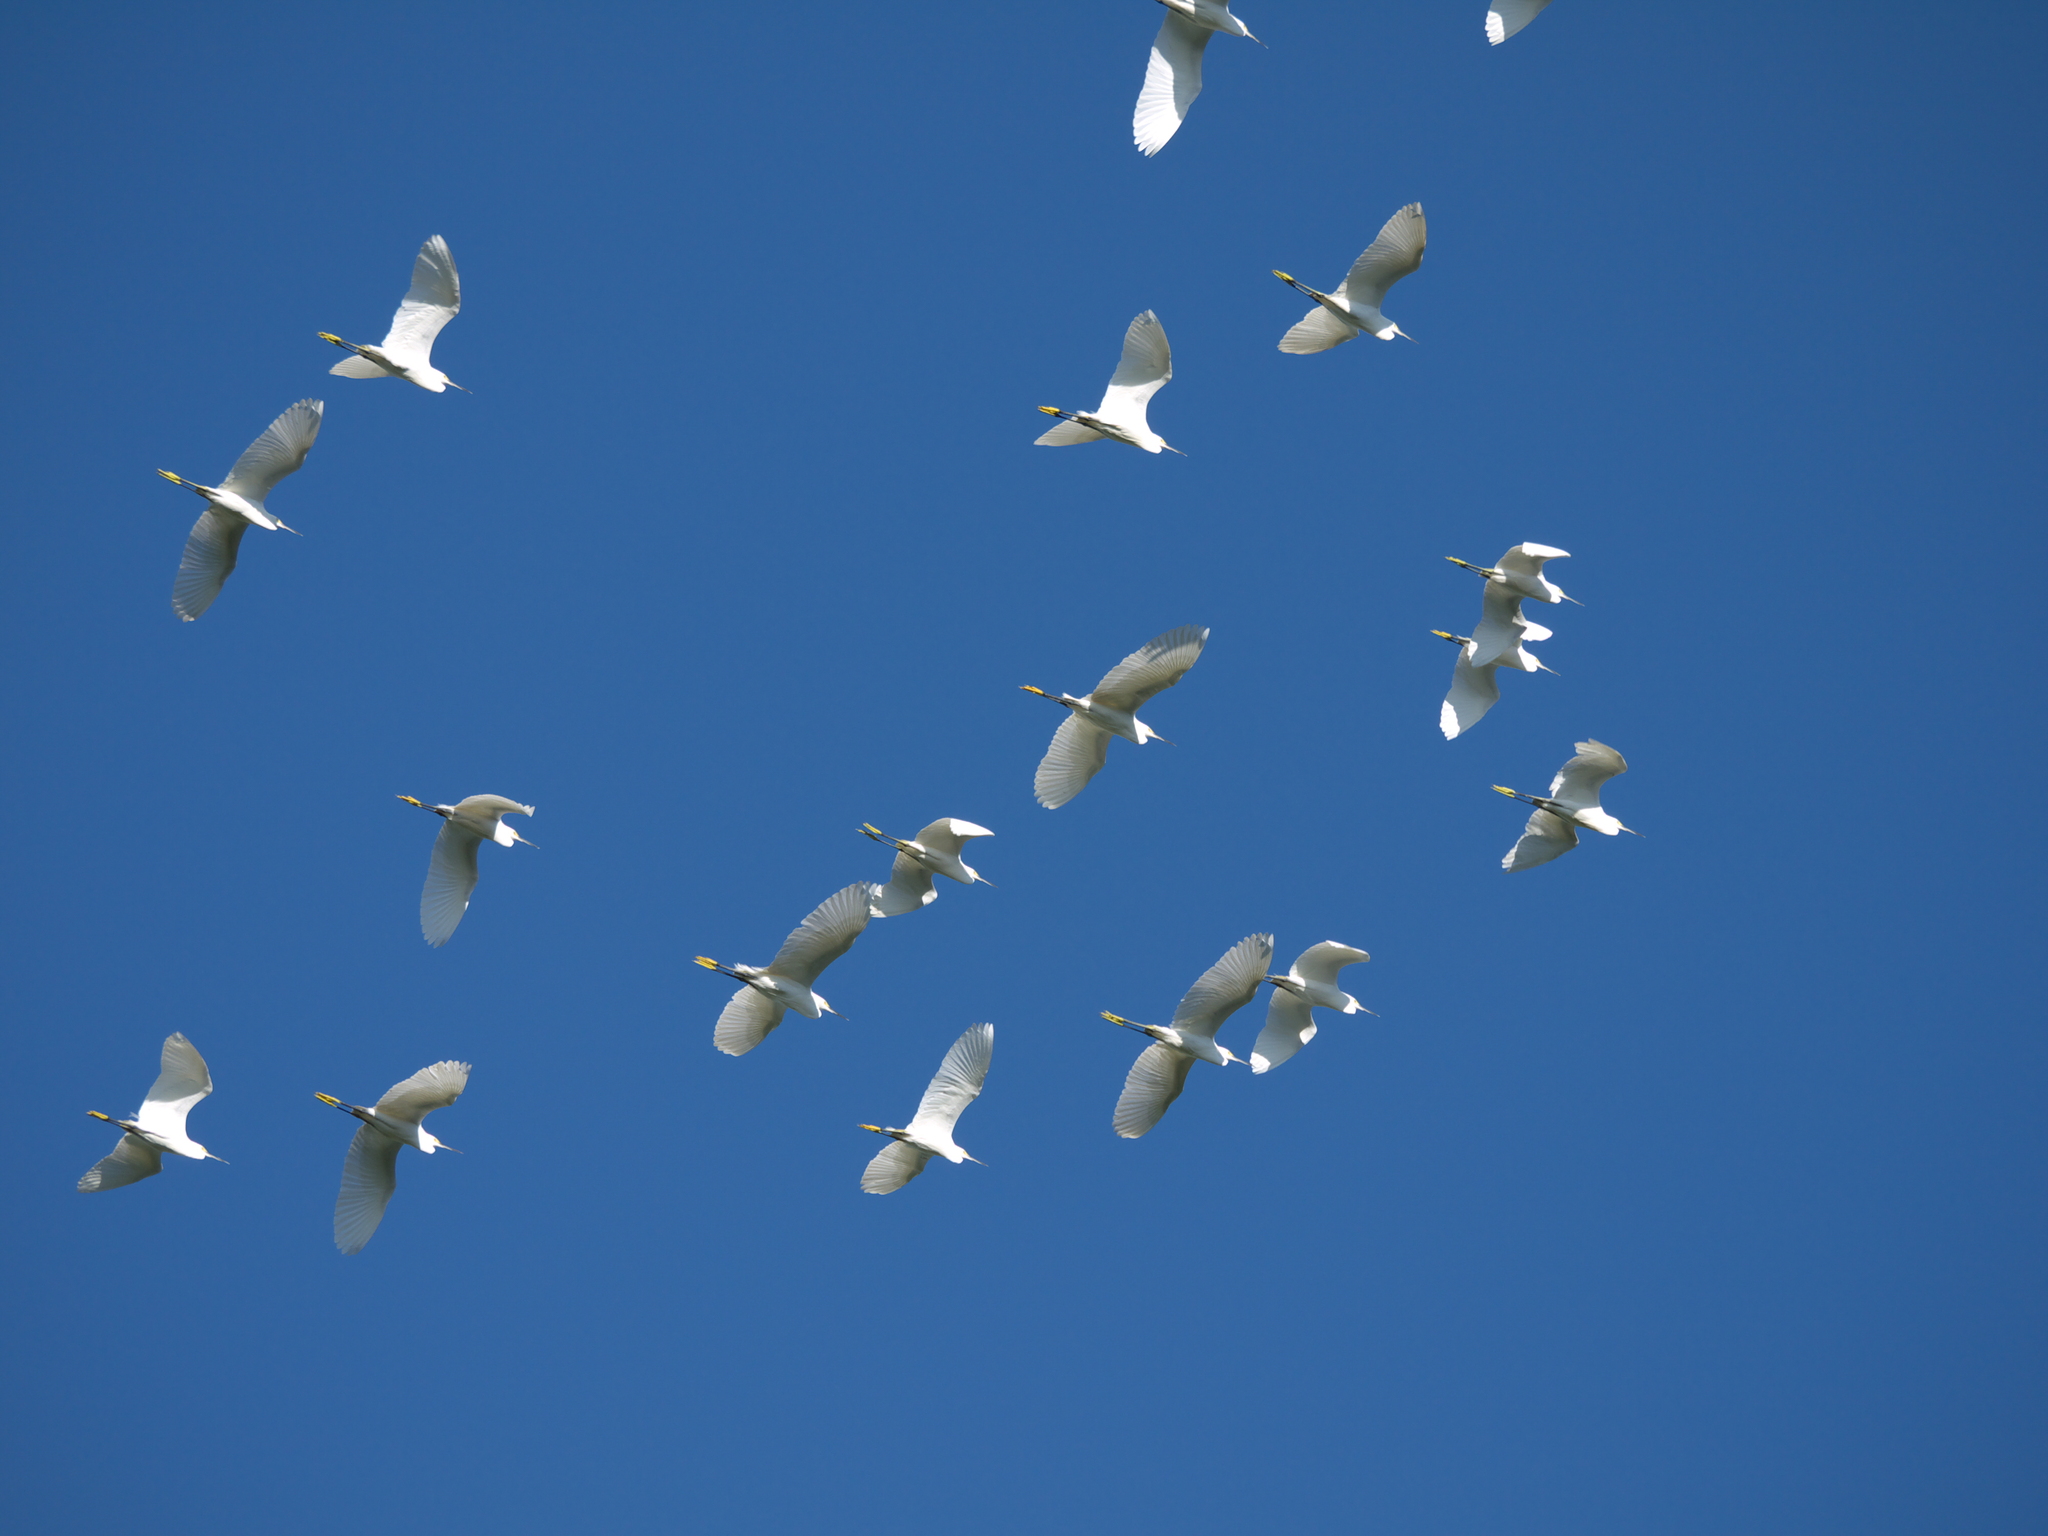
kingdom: Animalia
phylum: Chordata
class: Aves
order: Pelecaniformes
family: Ardeidae
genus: Egretta
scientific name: Egretta thula
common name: Snowy egret
